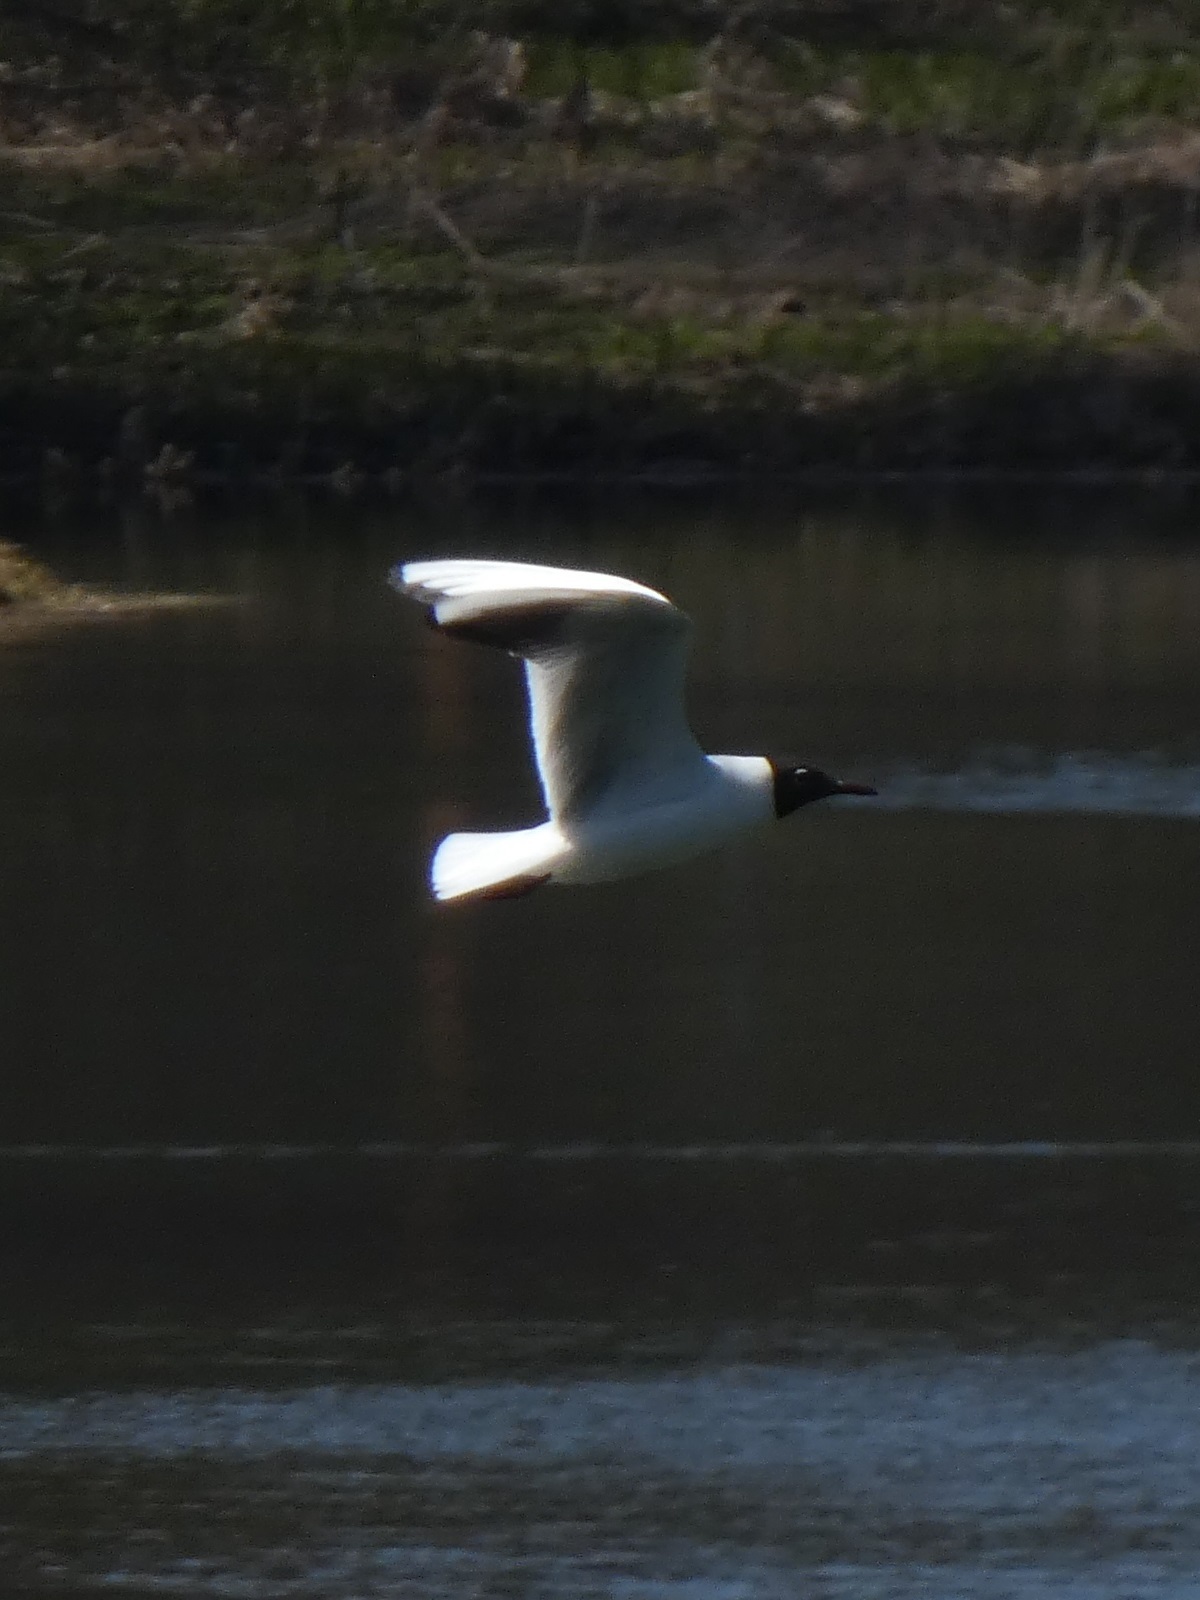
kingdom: Animalia
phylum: Chordata
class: Aves
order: Charadriiformes
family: Laridae
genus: Chroicocephalus
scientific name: Chroicocephalus ridibundus
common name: Black-headed gull
